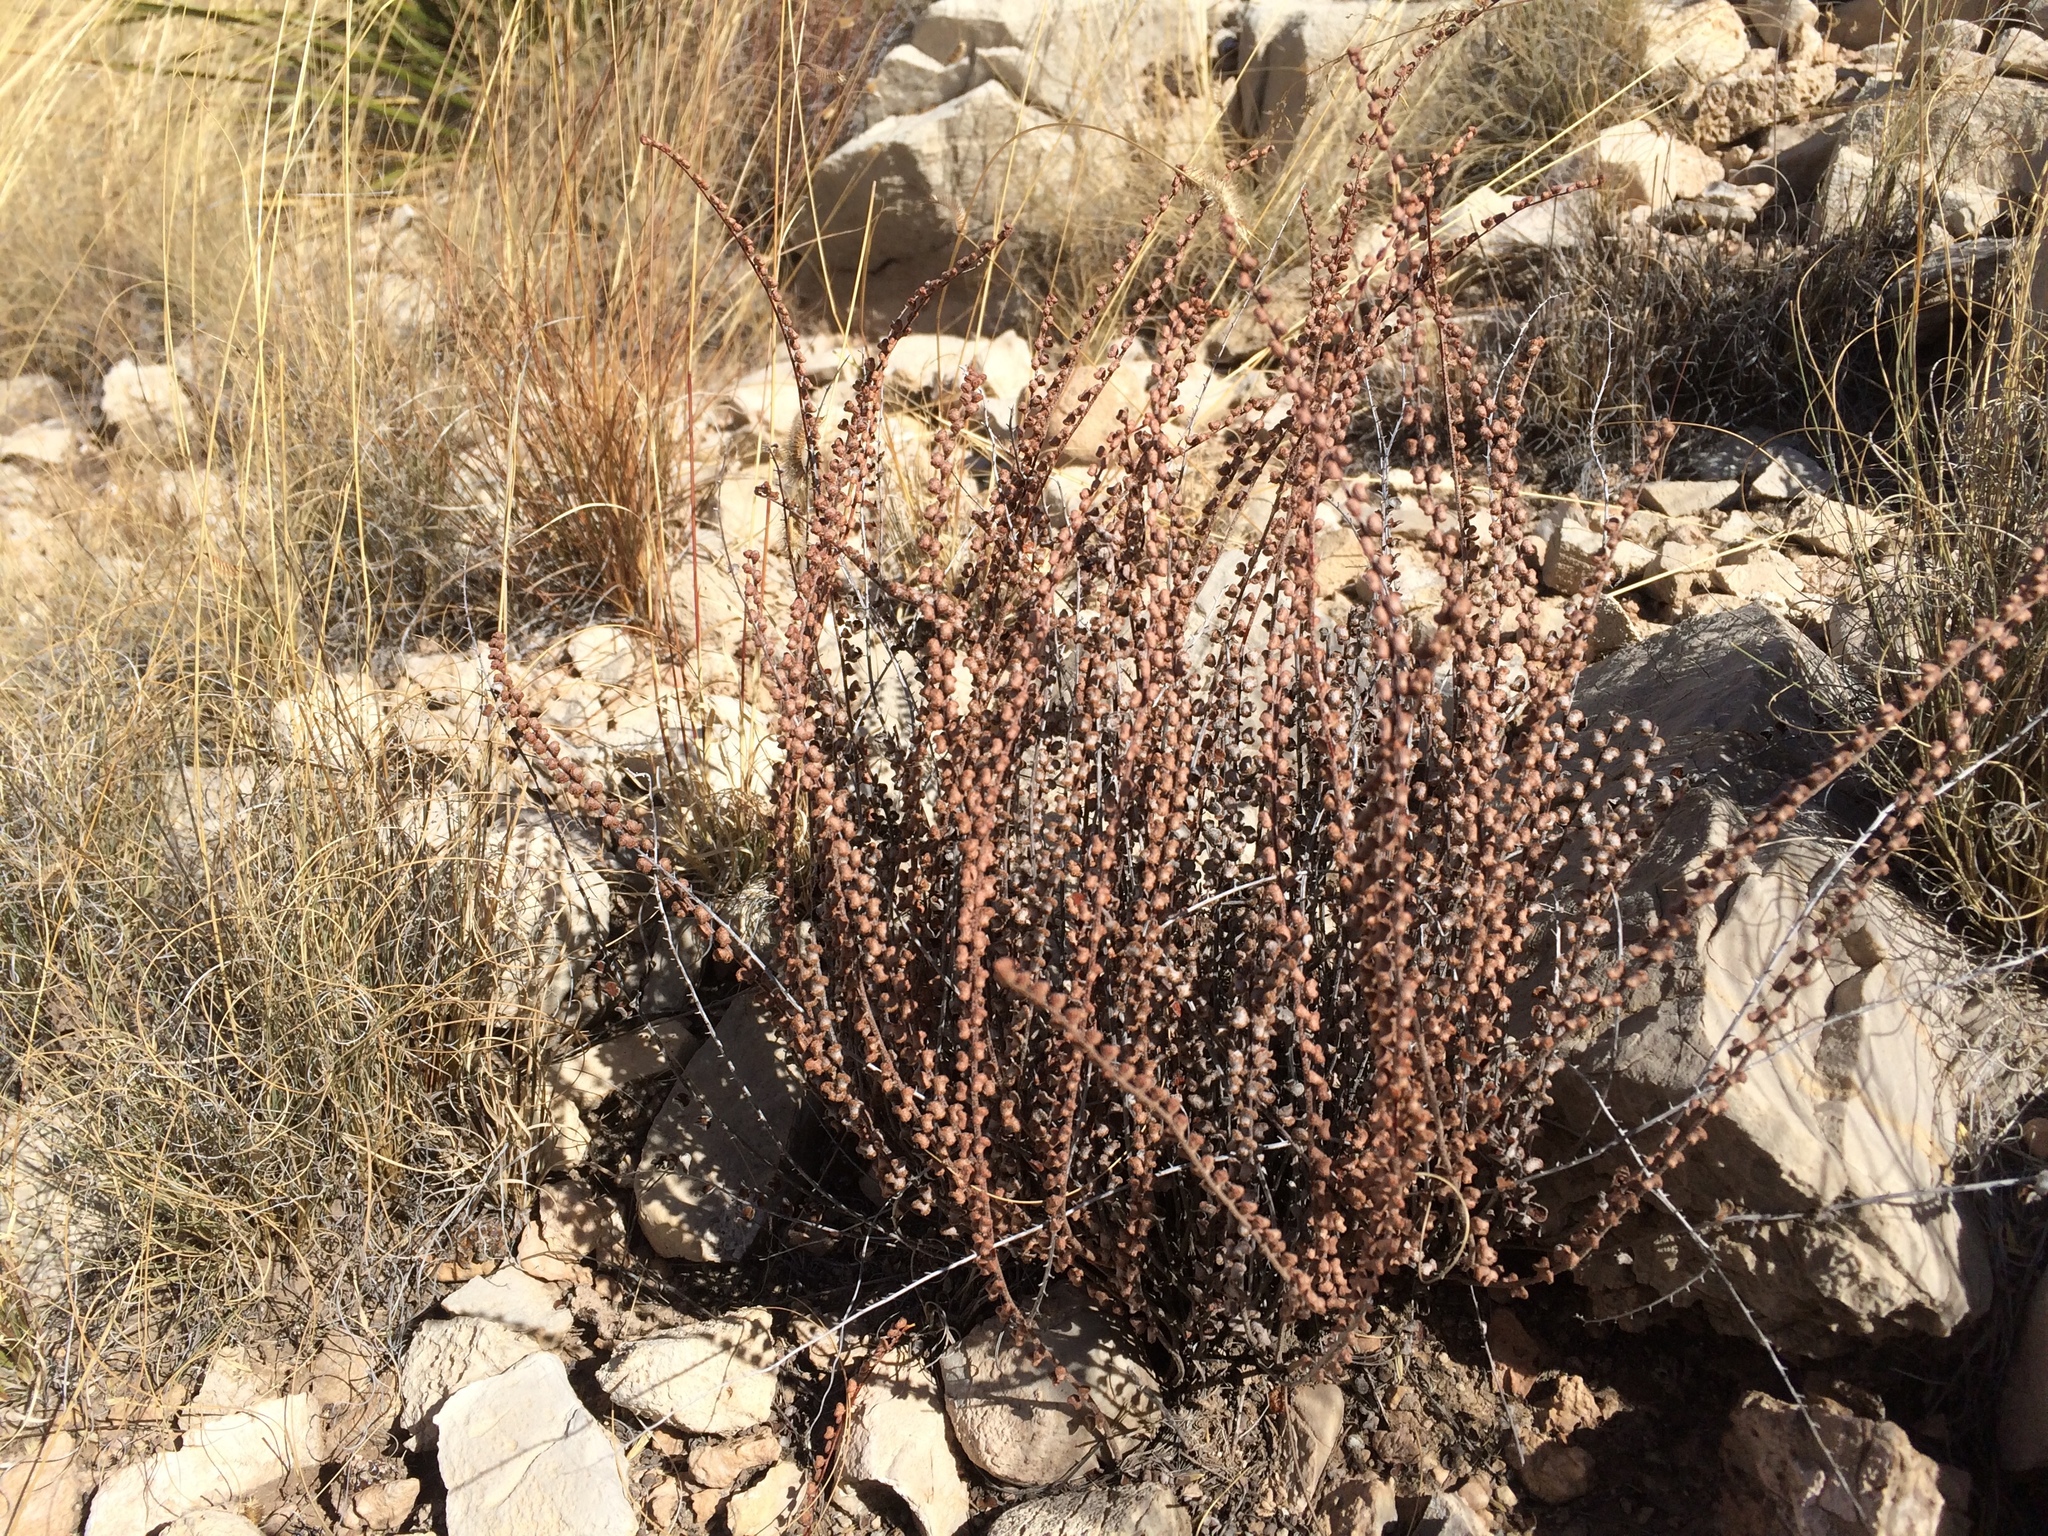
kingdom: Plantae
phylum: Tracheophyta
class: Polypodiopsida
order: Polypodiales
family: Pteridaceae
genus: Astrolepis
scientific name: Astrolepis cochisensis
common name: Scaly cloak fern
